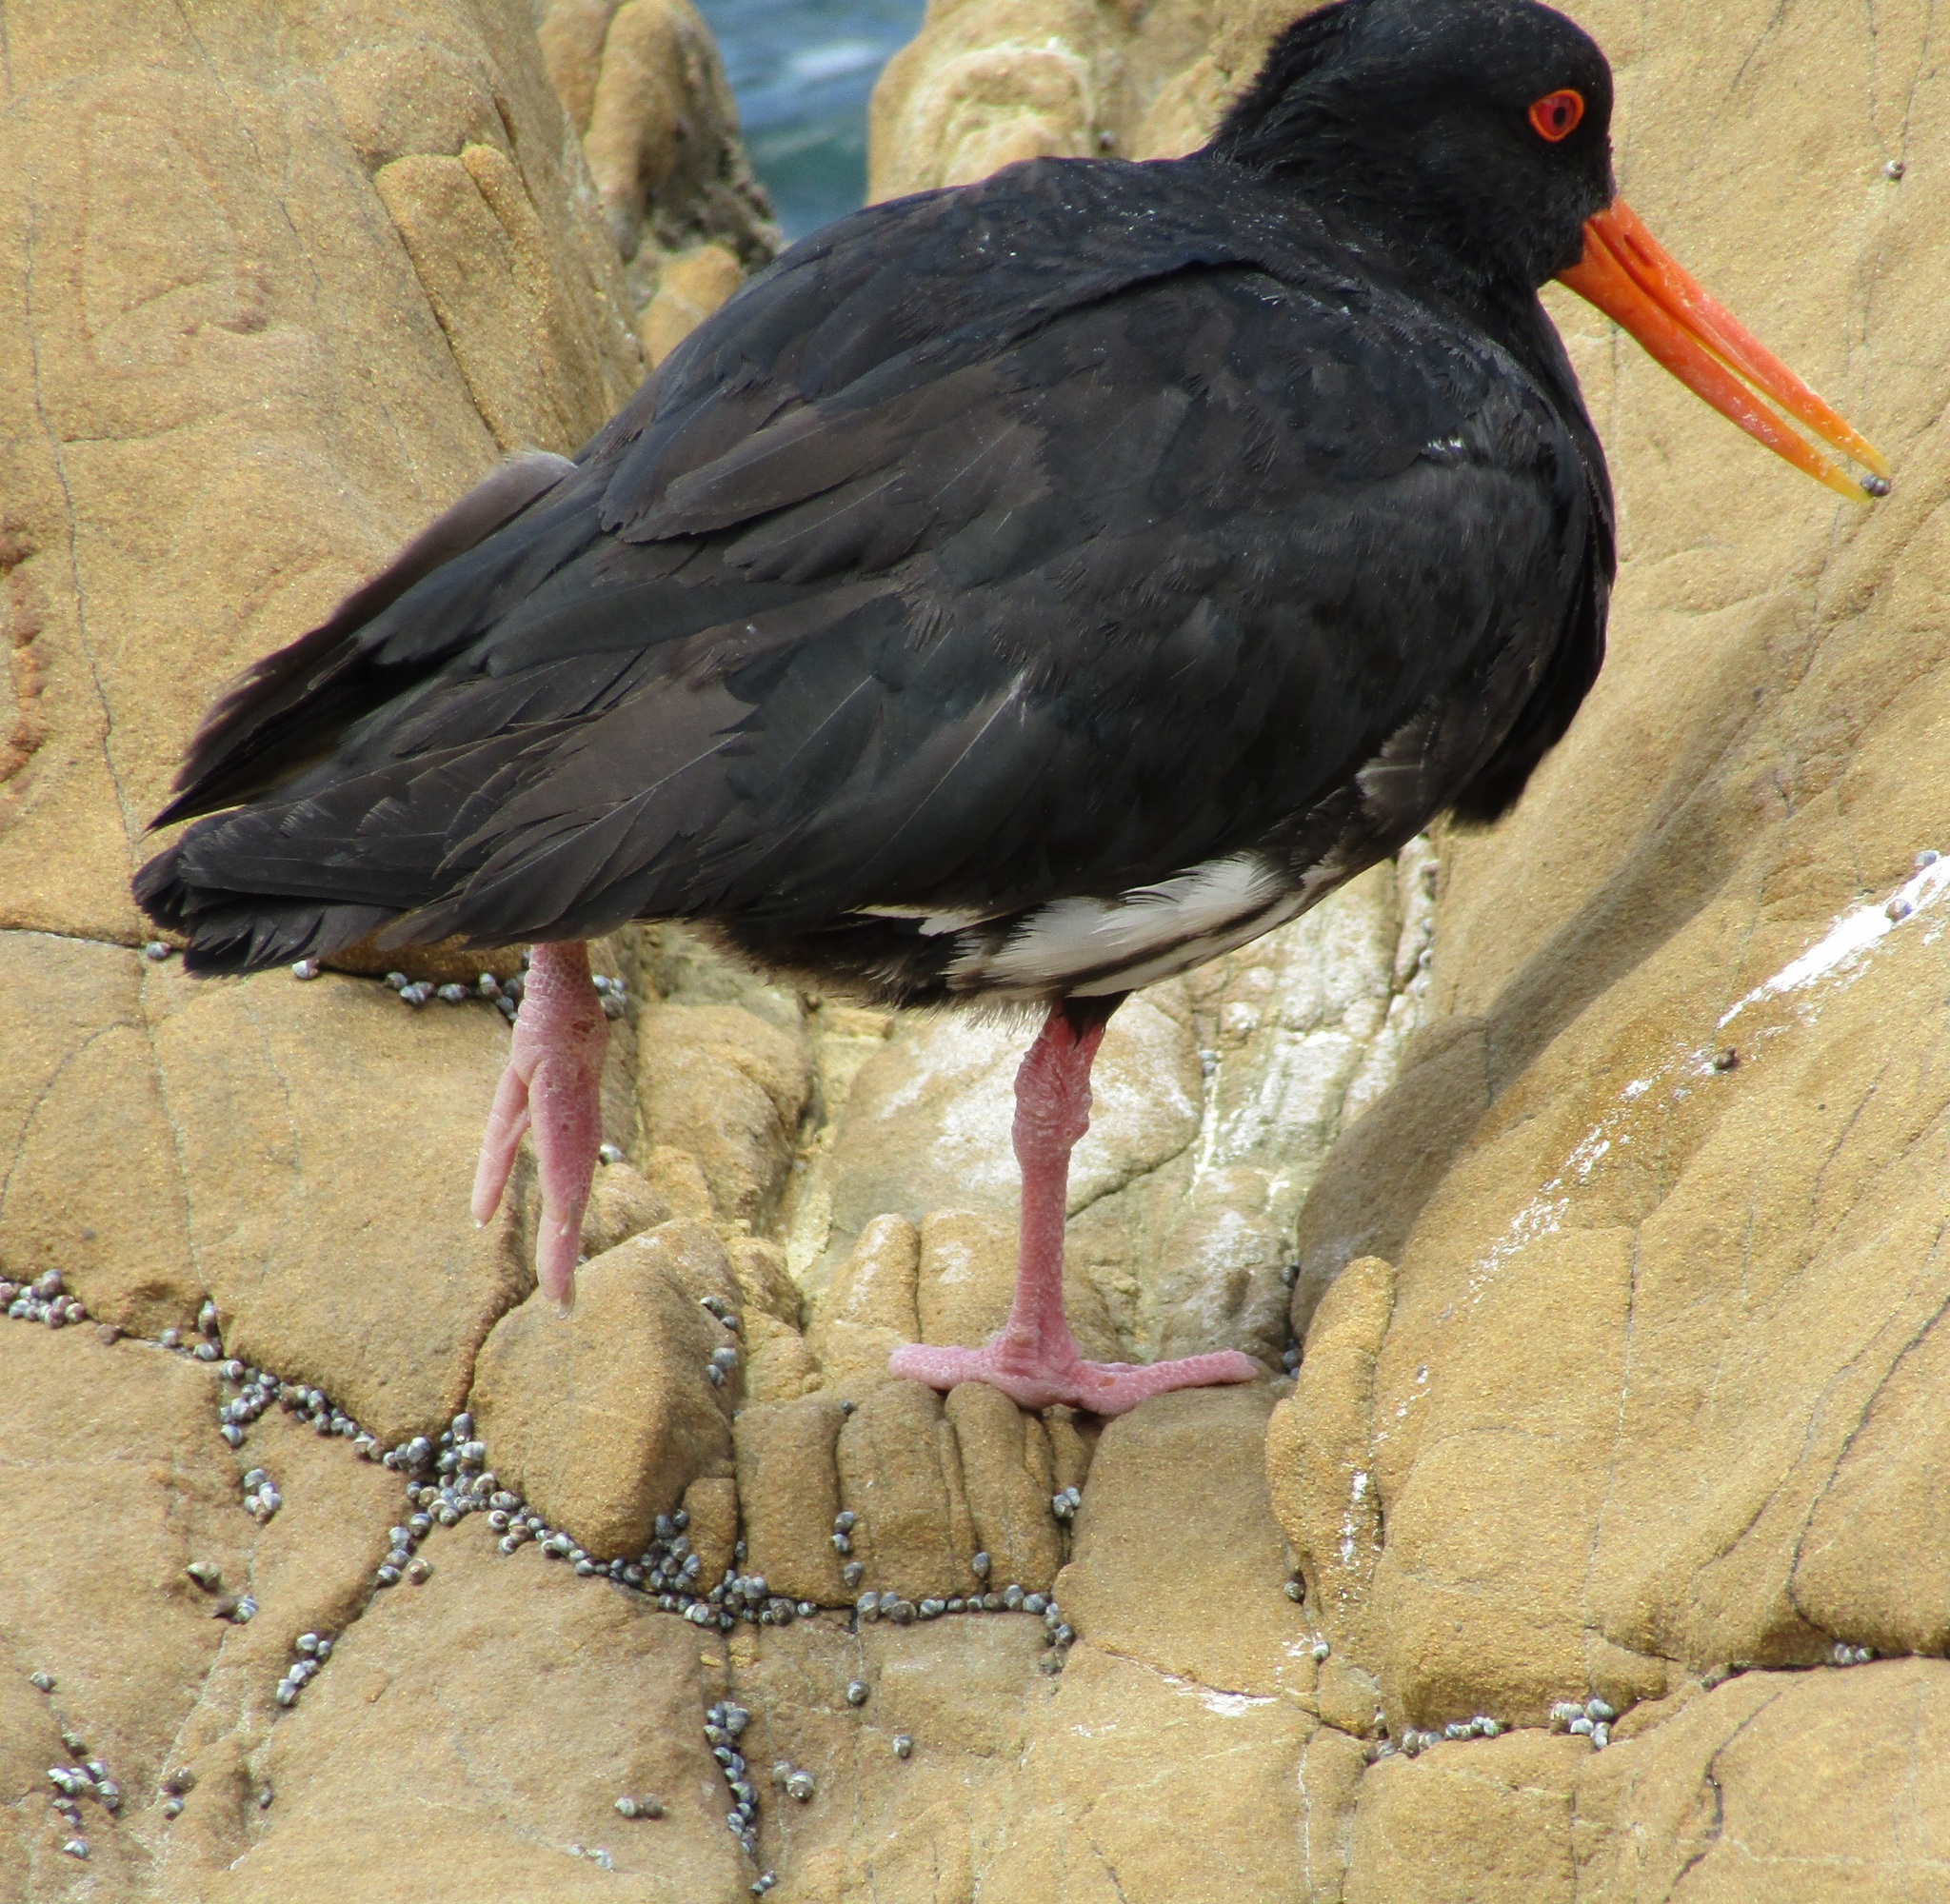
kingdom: Animalia
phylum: Chordata
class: Aves
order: Charadriiformes
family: Haematopodidae
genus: Haematopus
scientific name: Haematopus unicolor
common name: Variable oystercatcher
